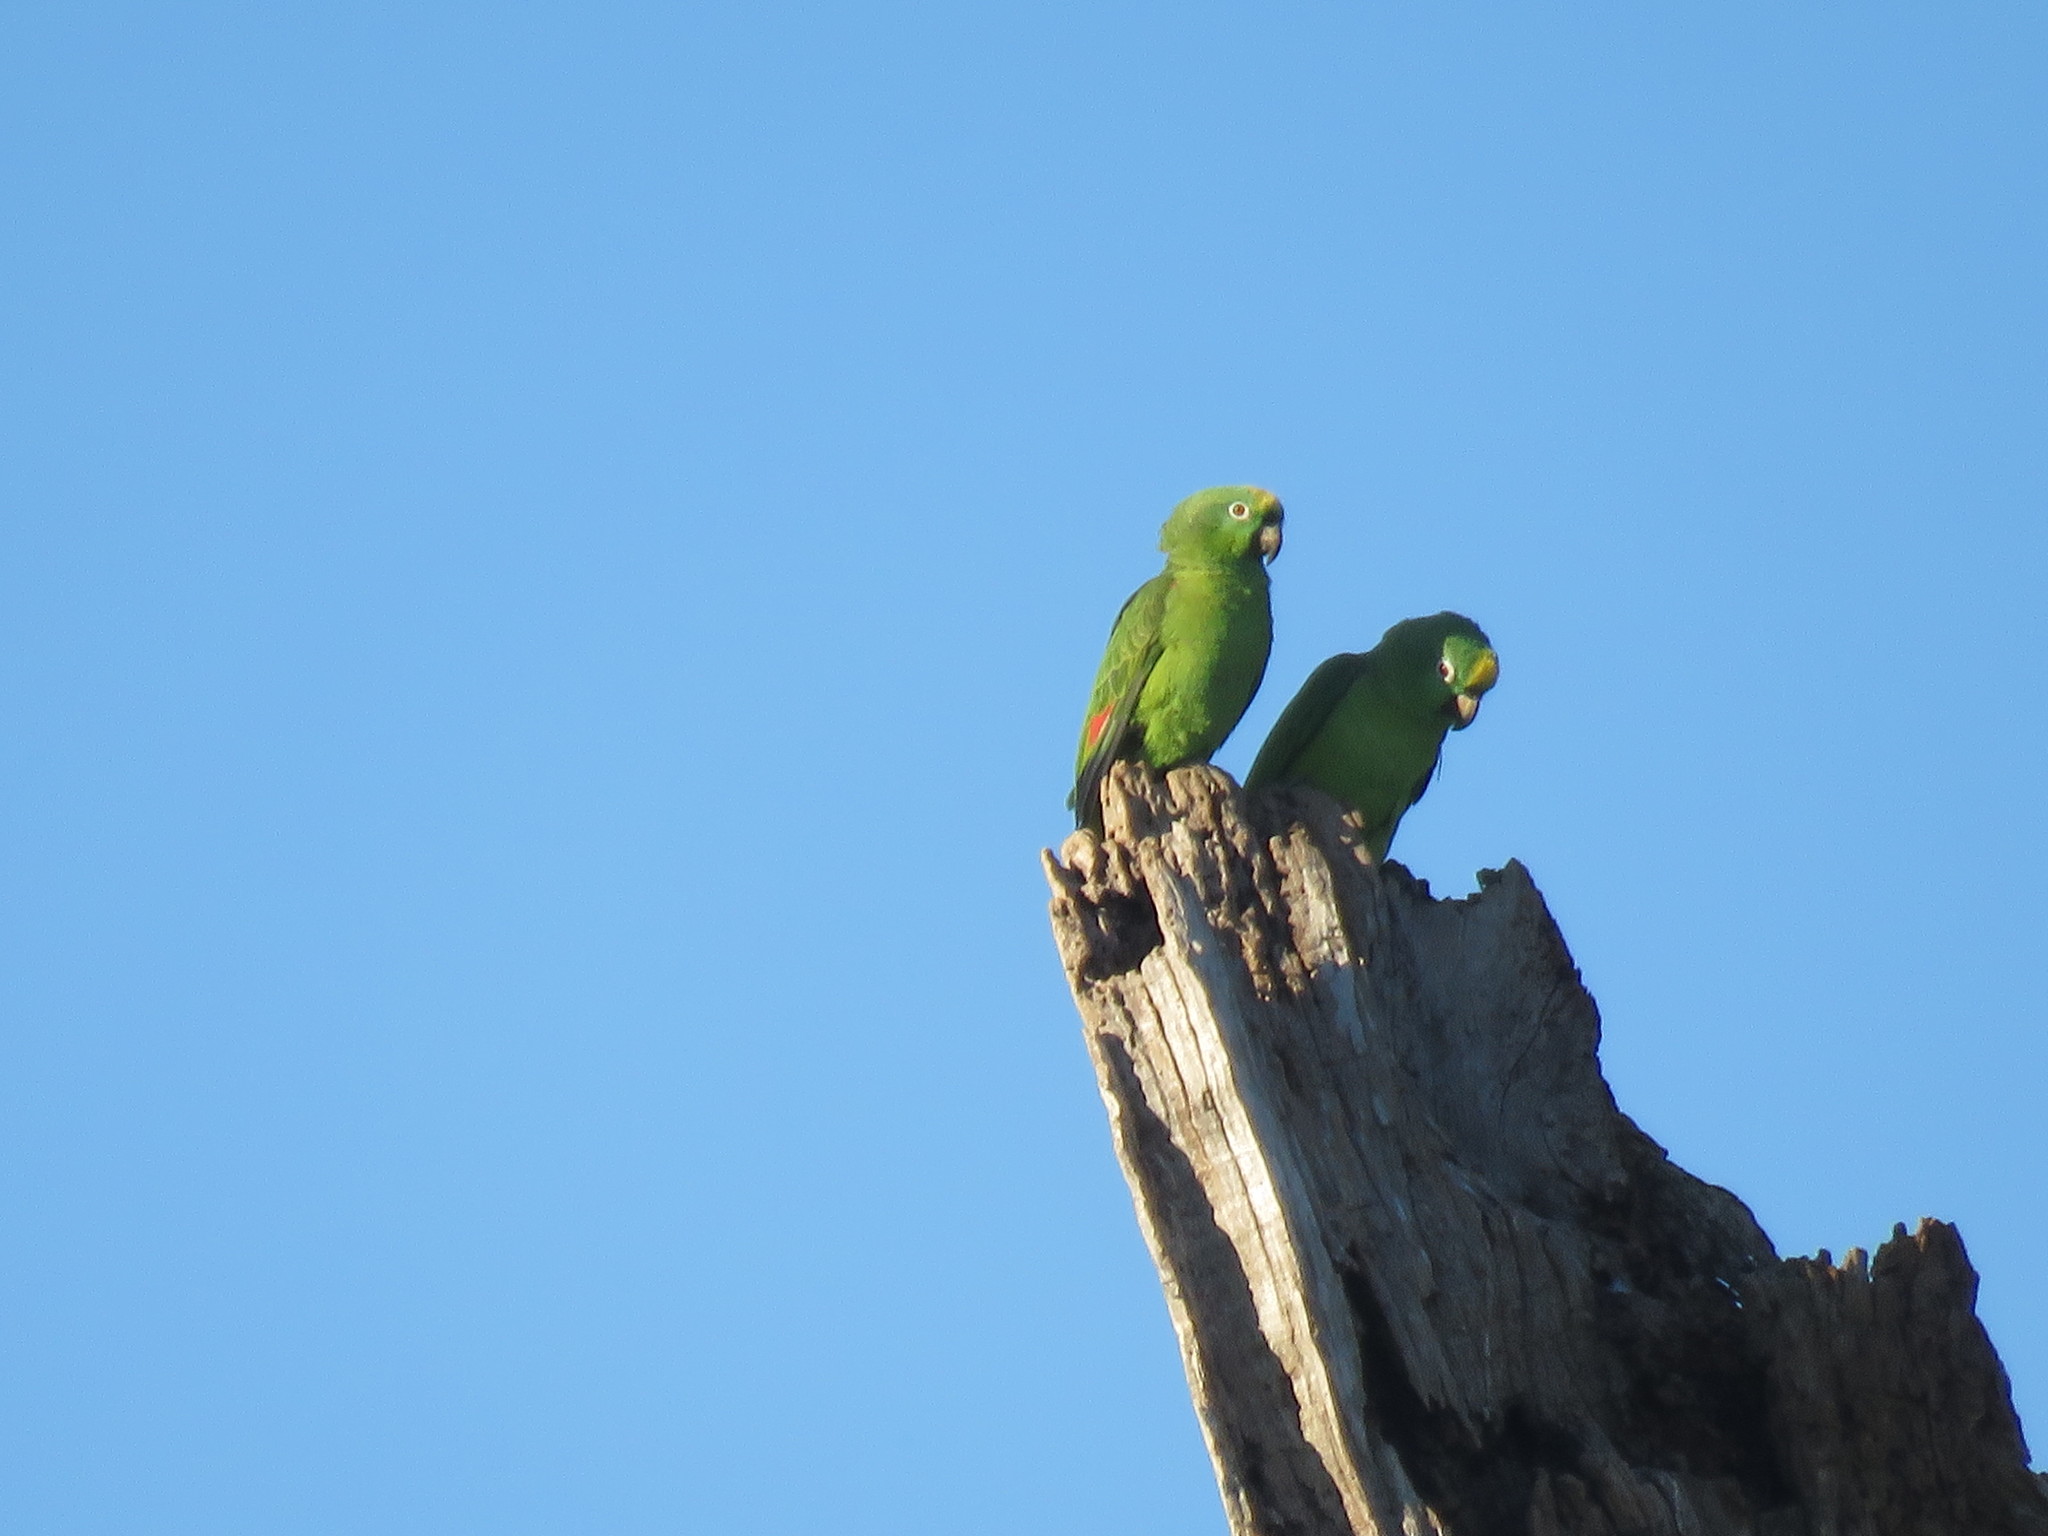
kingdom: Animalia
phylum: Chordata
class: Aves
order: Psittaciformes
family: Psittacidae
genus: Amazona
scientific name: Amazona ochrocephala
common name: Yellow-crowned amazon
